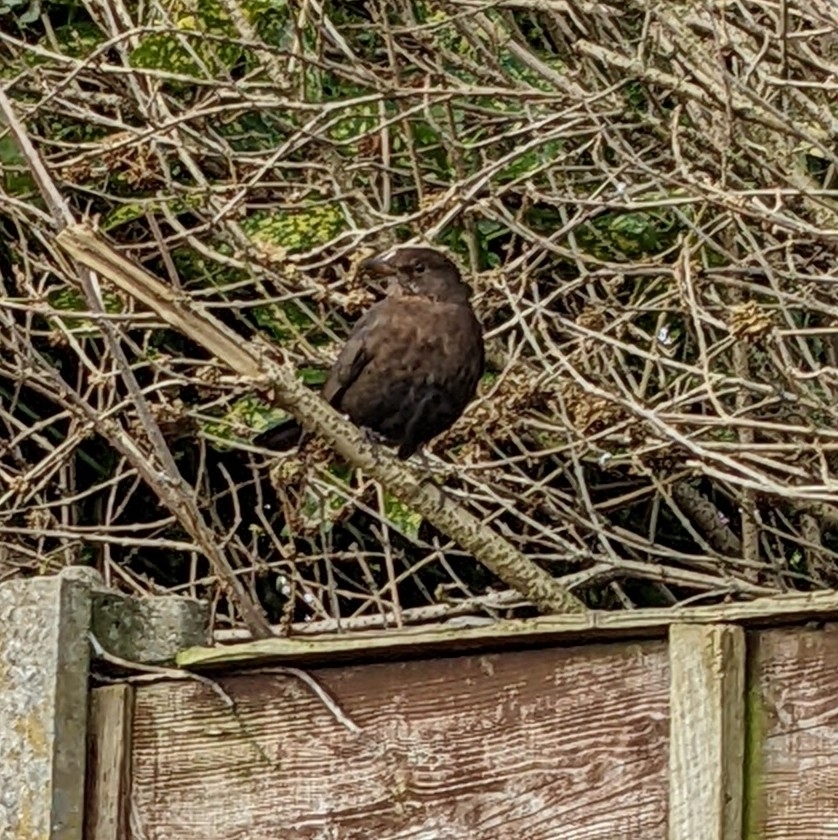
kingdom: Animalia
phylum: Chordata
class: Aves
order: Passeriformes
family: Turdidae
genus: Turdus
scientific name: Turdus merula
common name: Common blackbird
